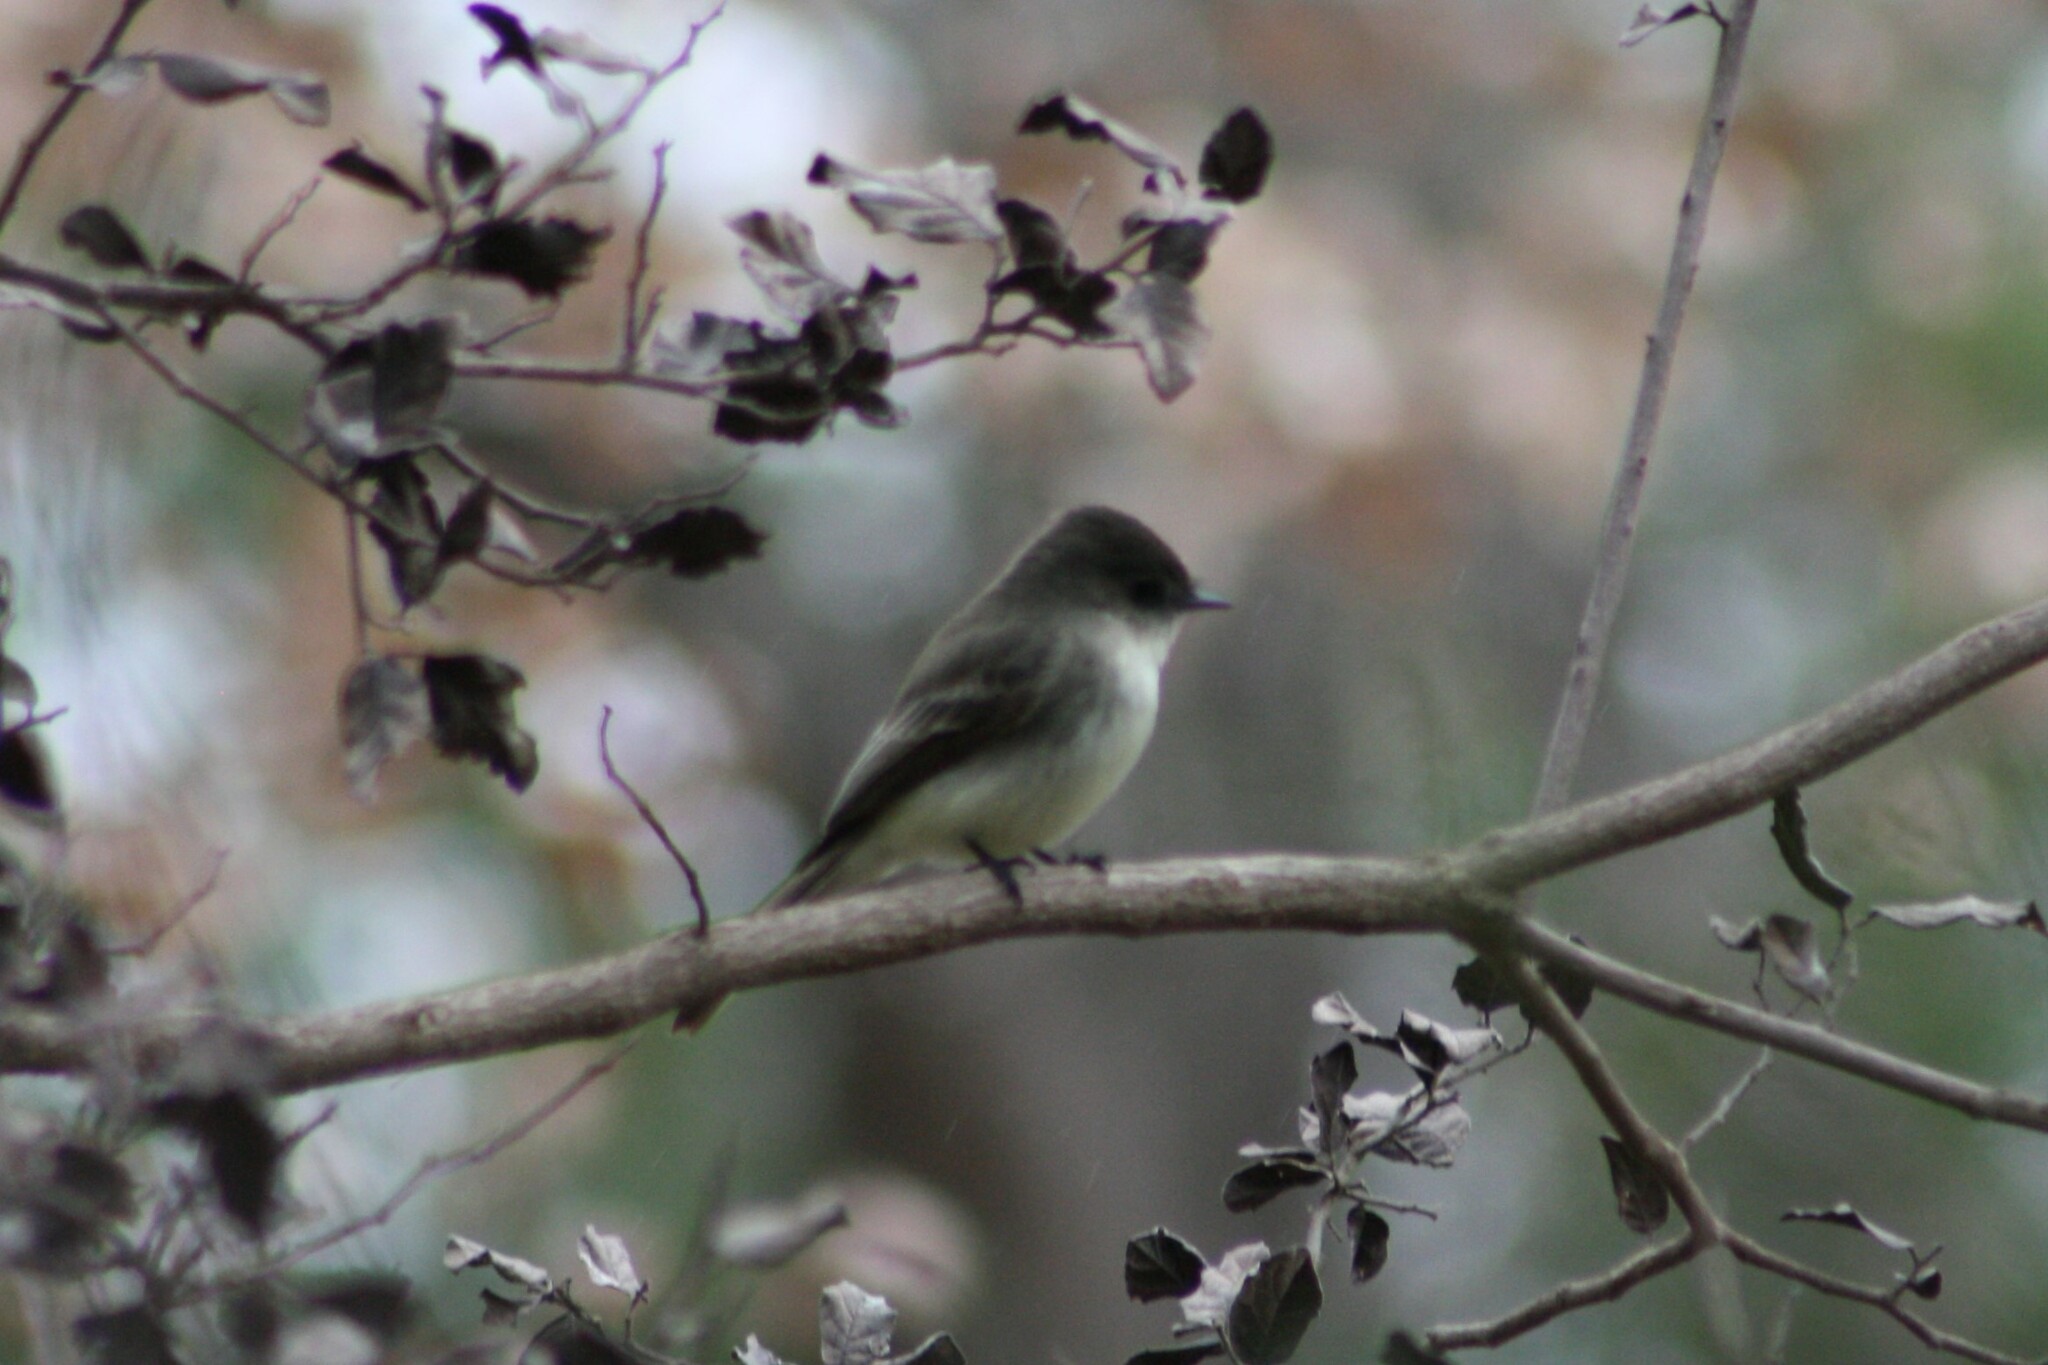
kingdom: Animalia
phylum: Chordata
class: Aves
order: Passeriformes
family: Tyrannidae
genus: Sayornis
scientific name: Sayornis phoebe
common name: Eastern phoebe
